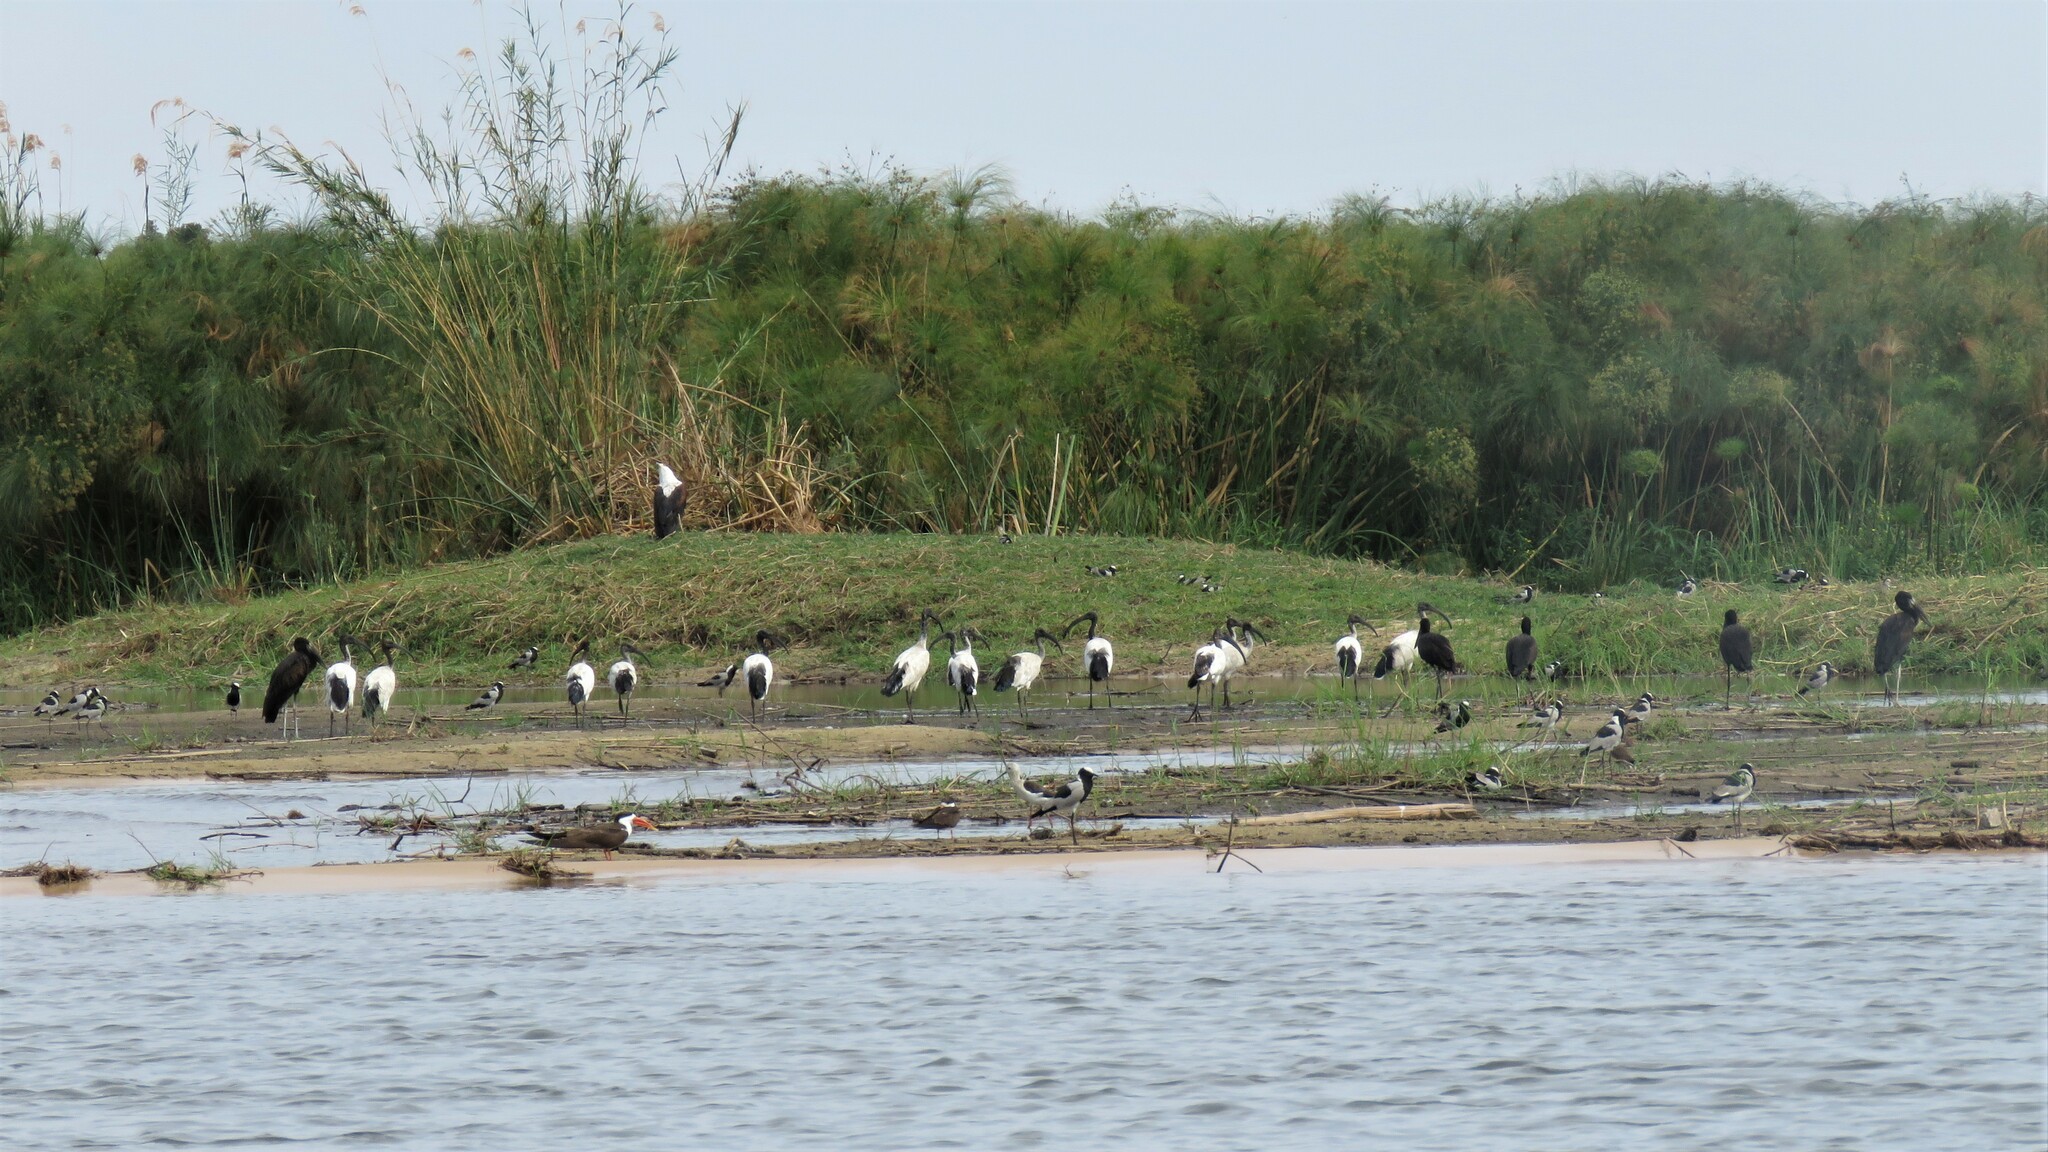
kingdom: Animalia
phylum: Chordata
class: Aves
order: Ciconiiformes
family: Ciconiidae
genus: Anastomus
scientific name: Anastomus lamelligerus
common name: African openbill
